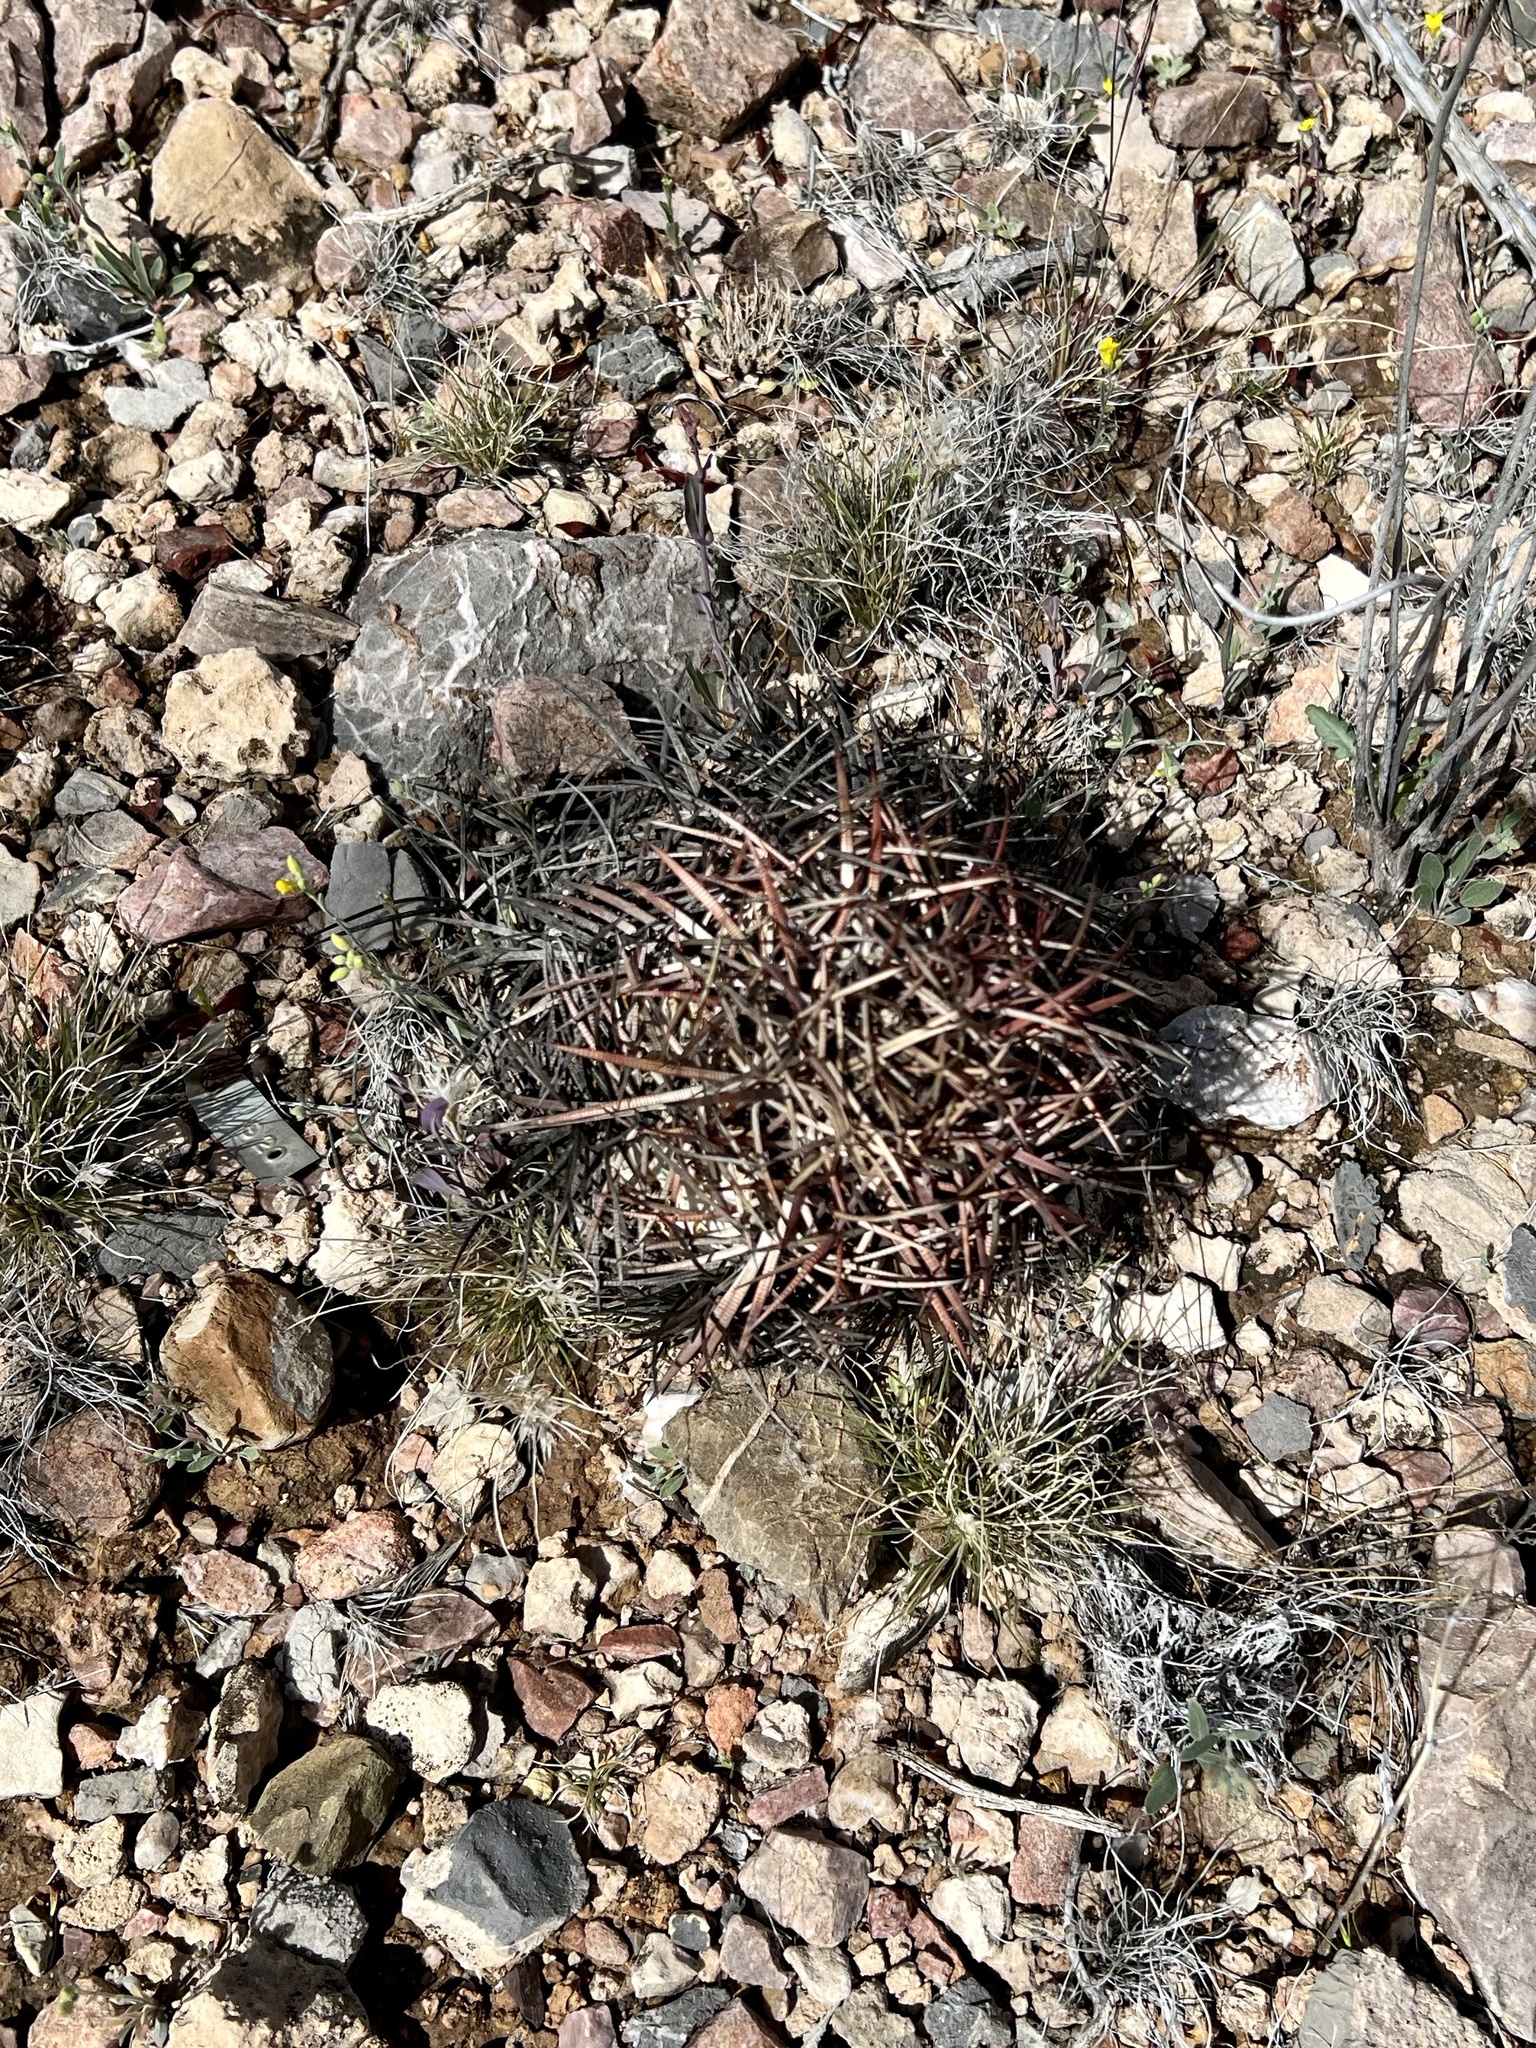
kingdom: Plantae
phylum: Tracheophyta
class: Magnoliopsida
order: Caryophyllales
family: Cactaceae
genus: Echinocactus
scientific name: Echinocactus horizonthalonius
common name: Devilshead
